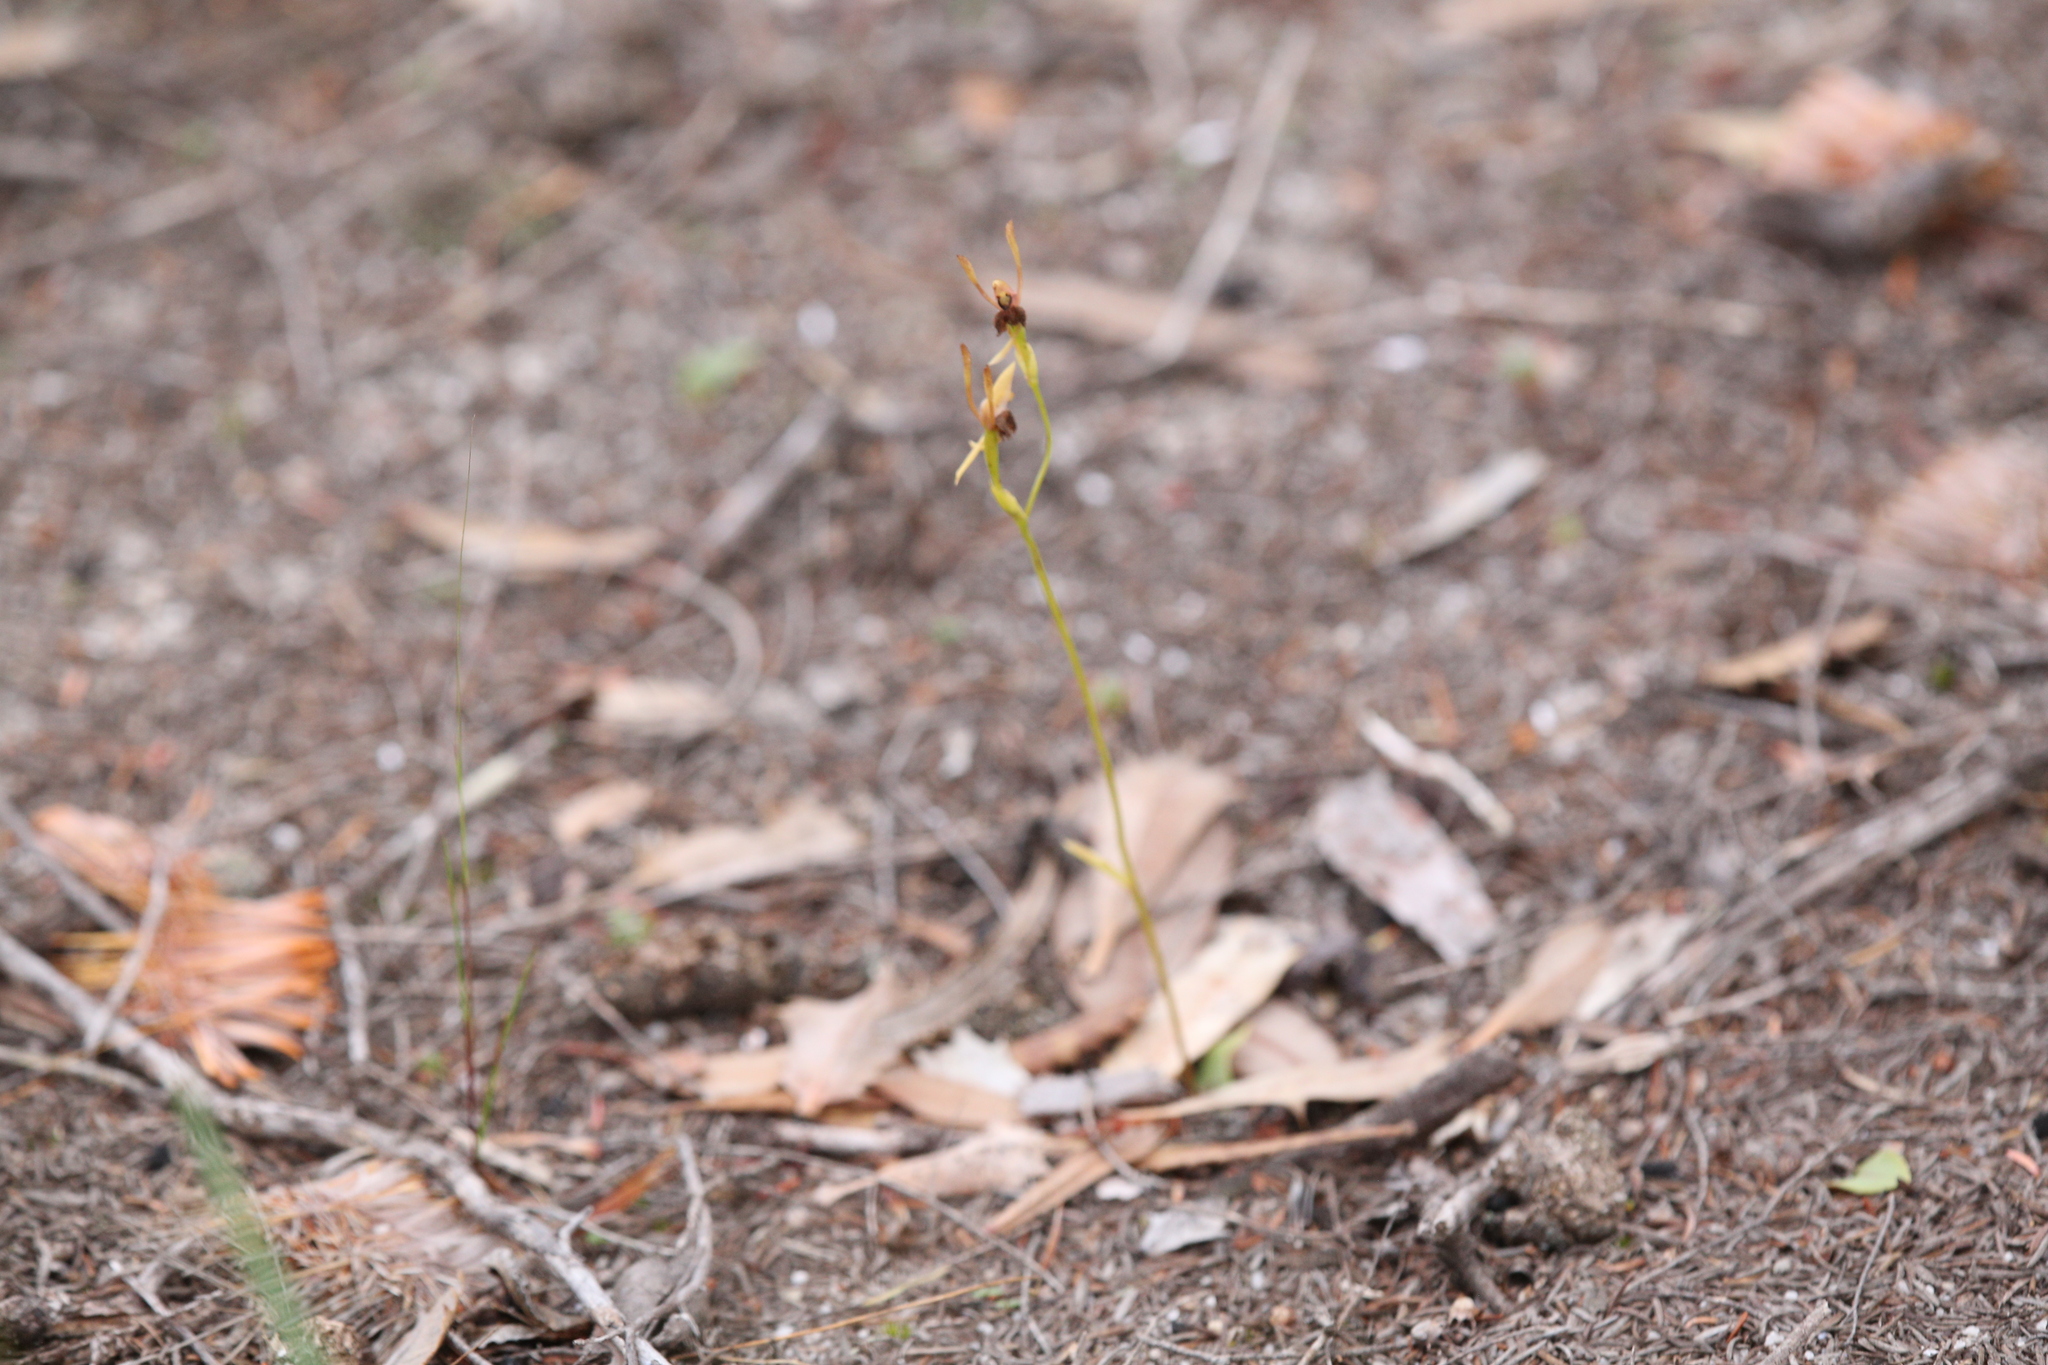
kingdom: Plantae
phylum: Tracheophyta
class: Liliopsida
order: Asparagales
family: Orchidaceae
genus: Leporella
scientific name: Leporella fimbriata
